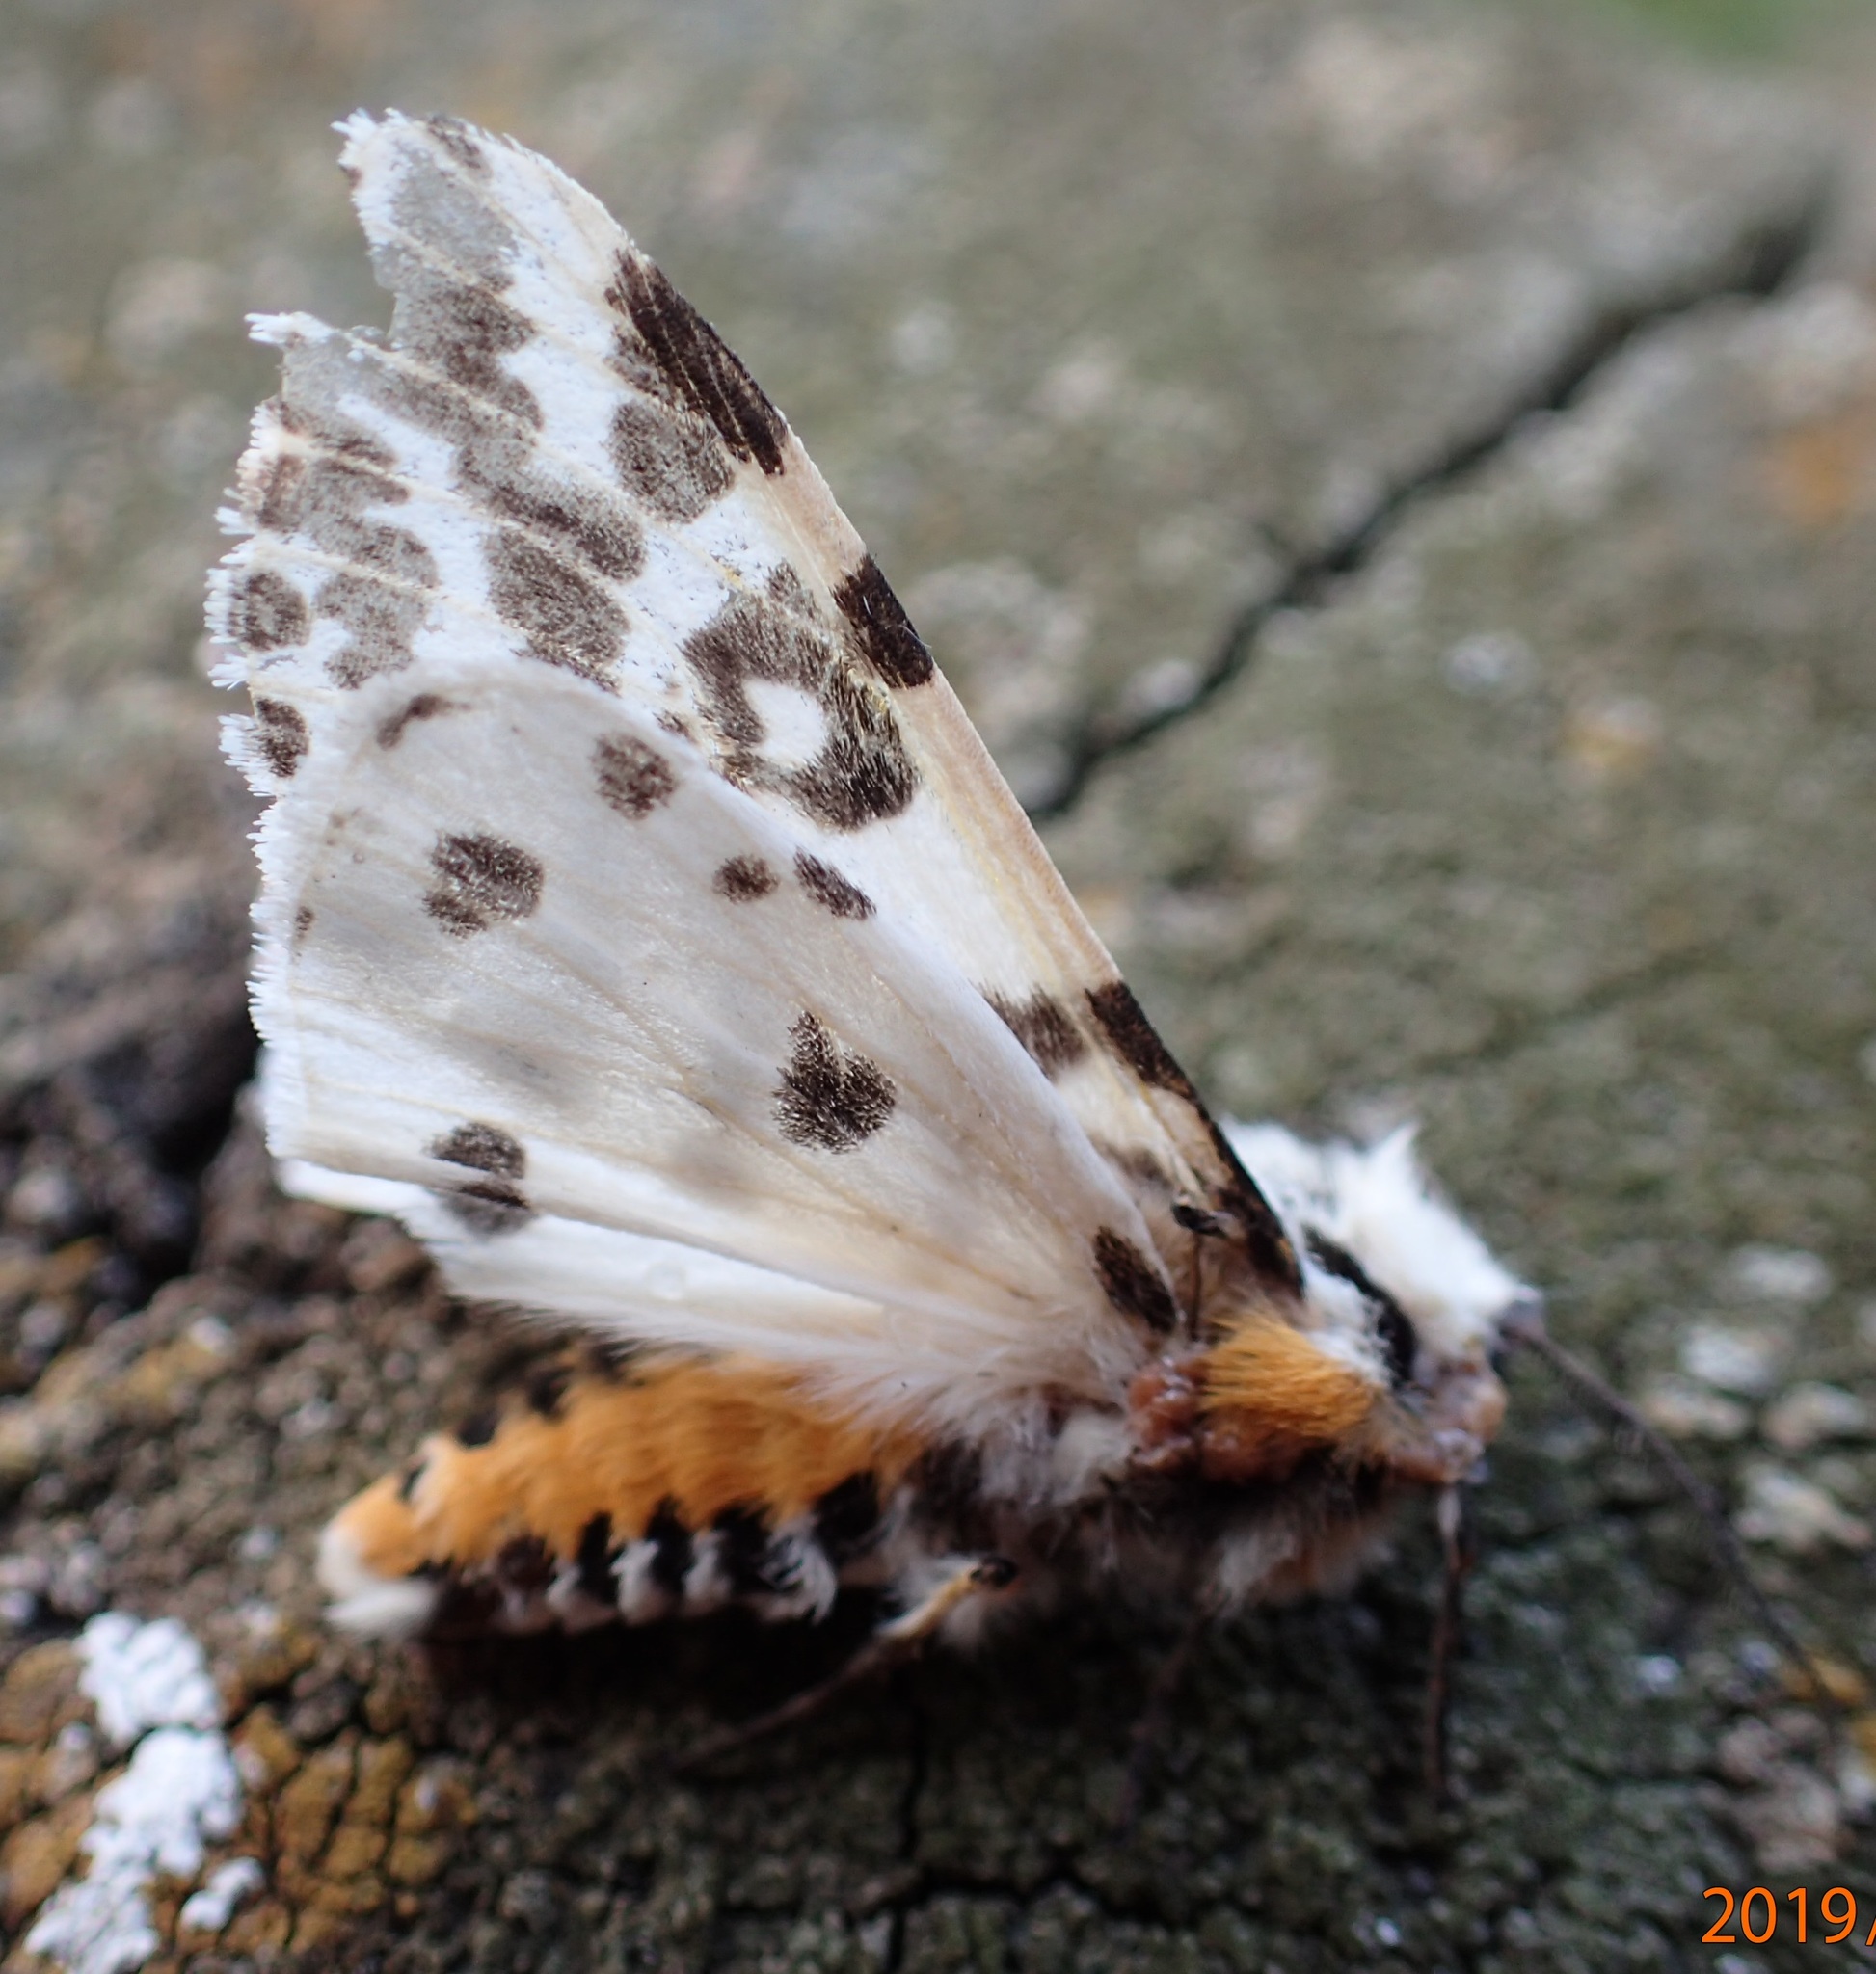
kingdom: Animalia
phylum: Arthropoda
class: Insecta
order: Lepidoptera
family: Erebidae
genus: Ardices
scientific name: Ardices glatignyi
